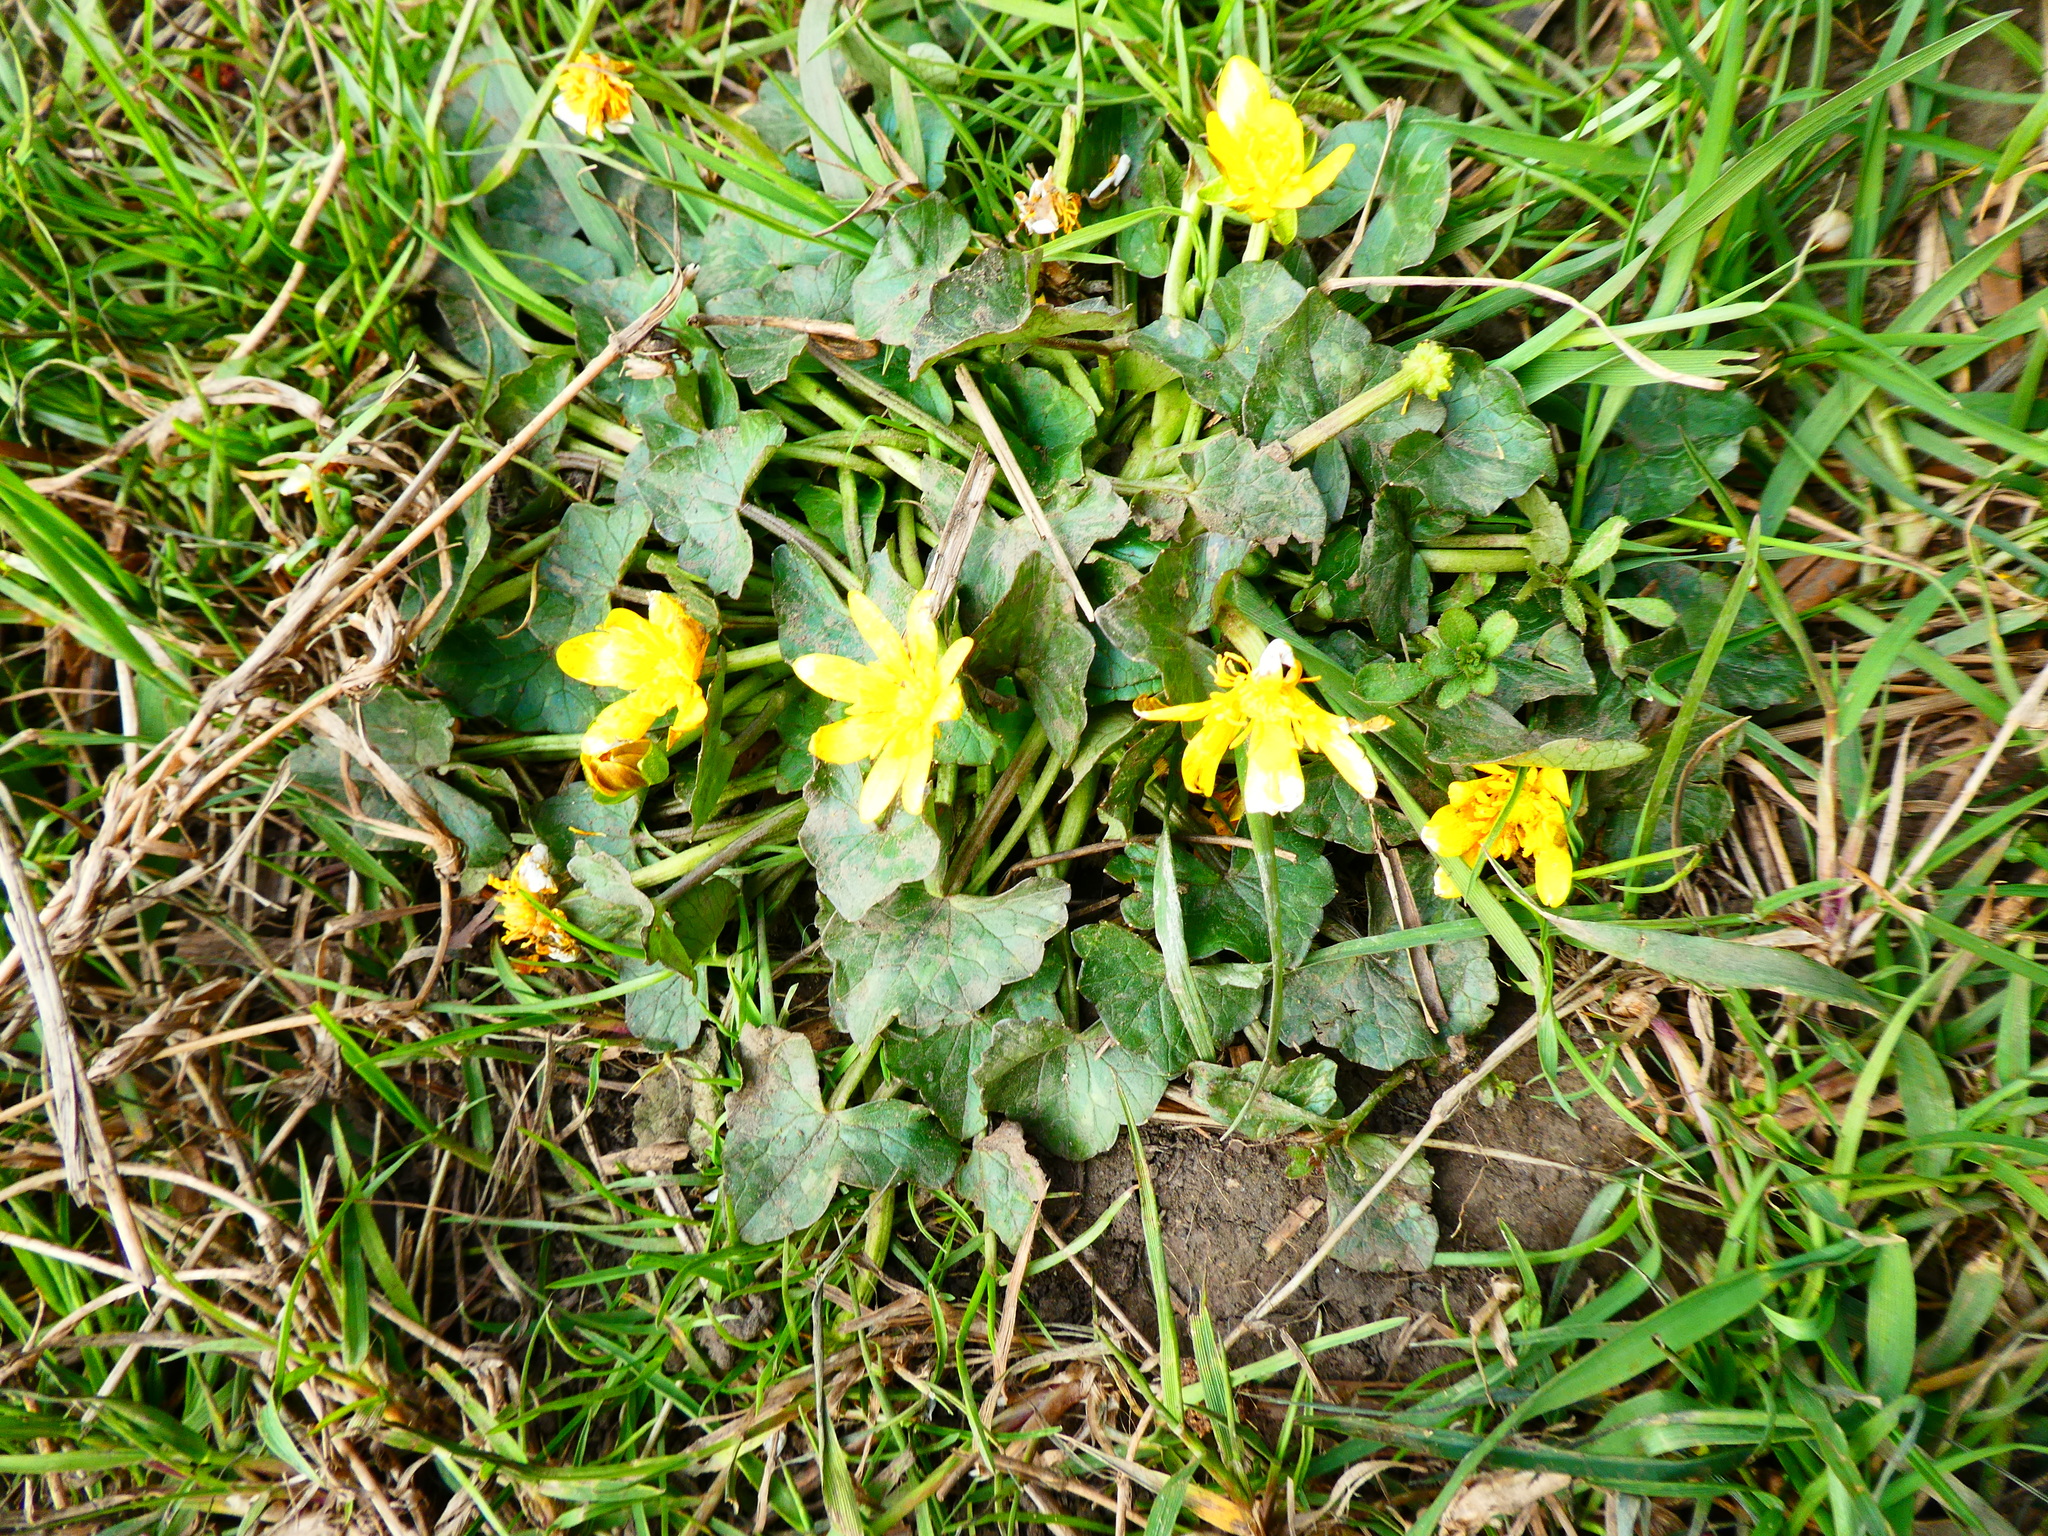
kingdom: Plantae
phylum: Tracheophyta
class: Magnoliopsida
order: Ranunculales
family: Ranunculaceae
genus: Ficaria
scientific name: Ficaria verna
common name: Lesser celandine
